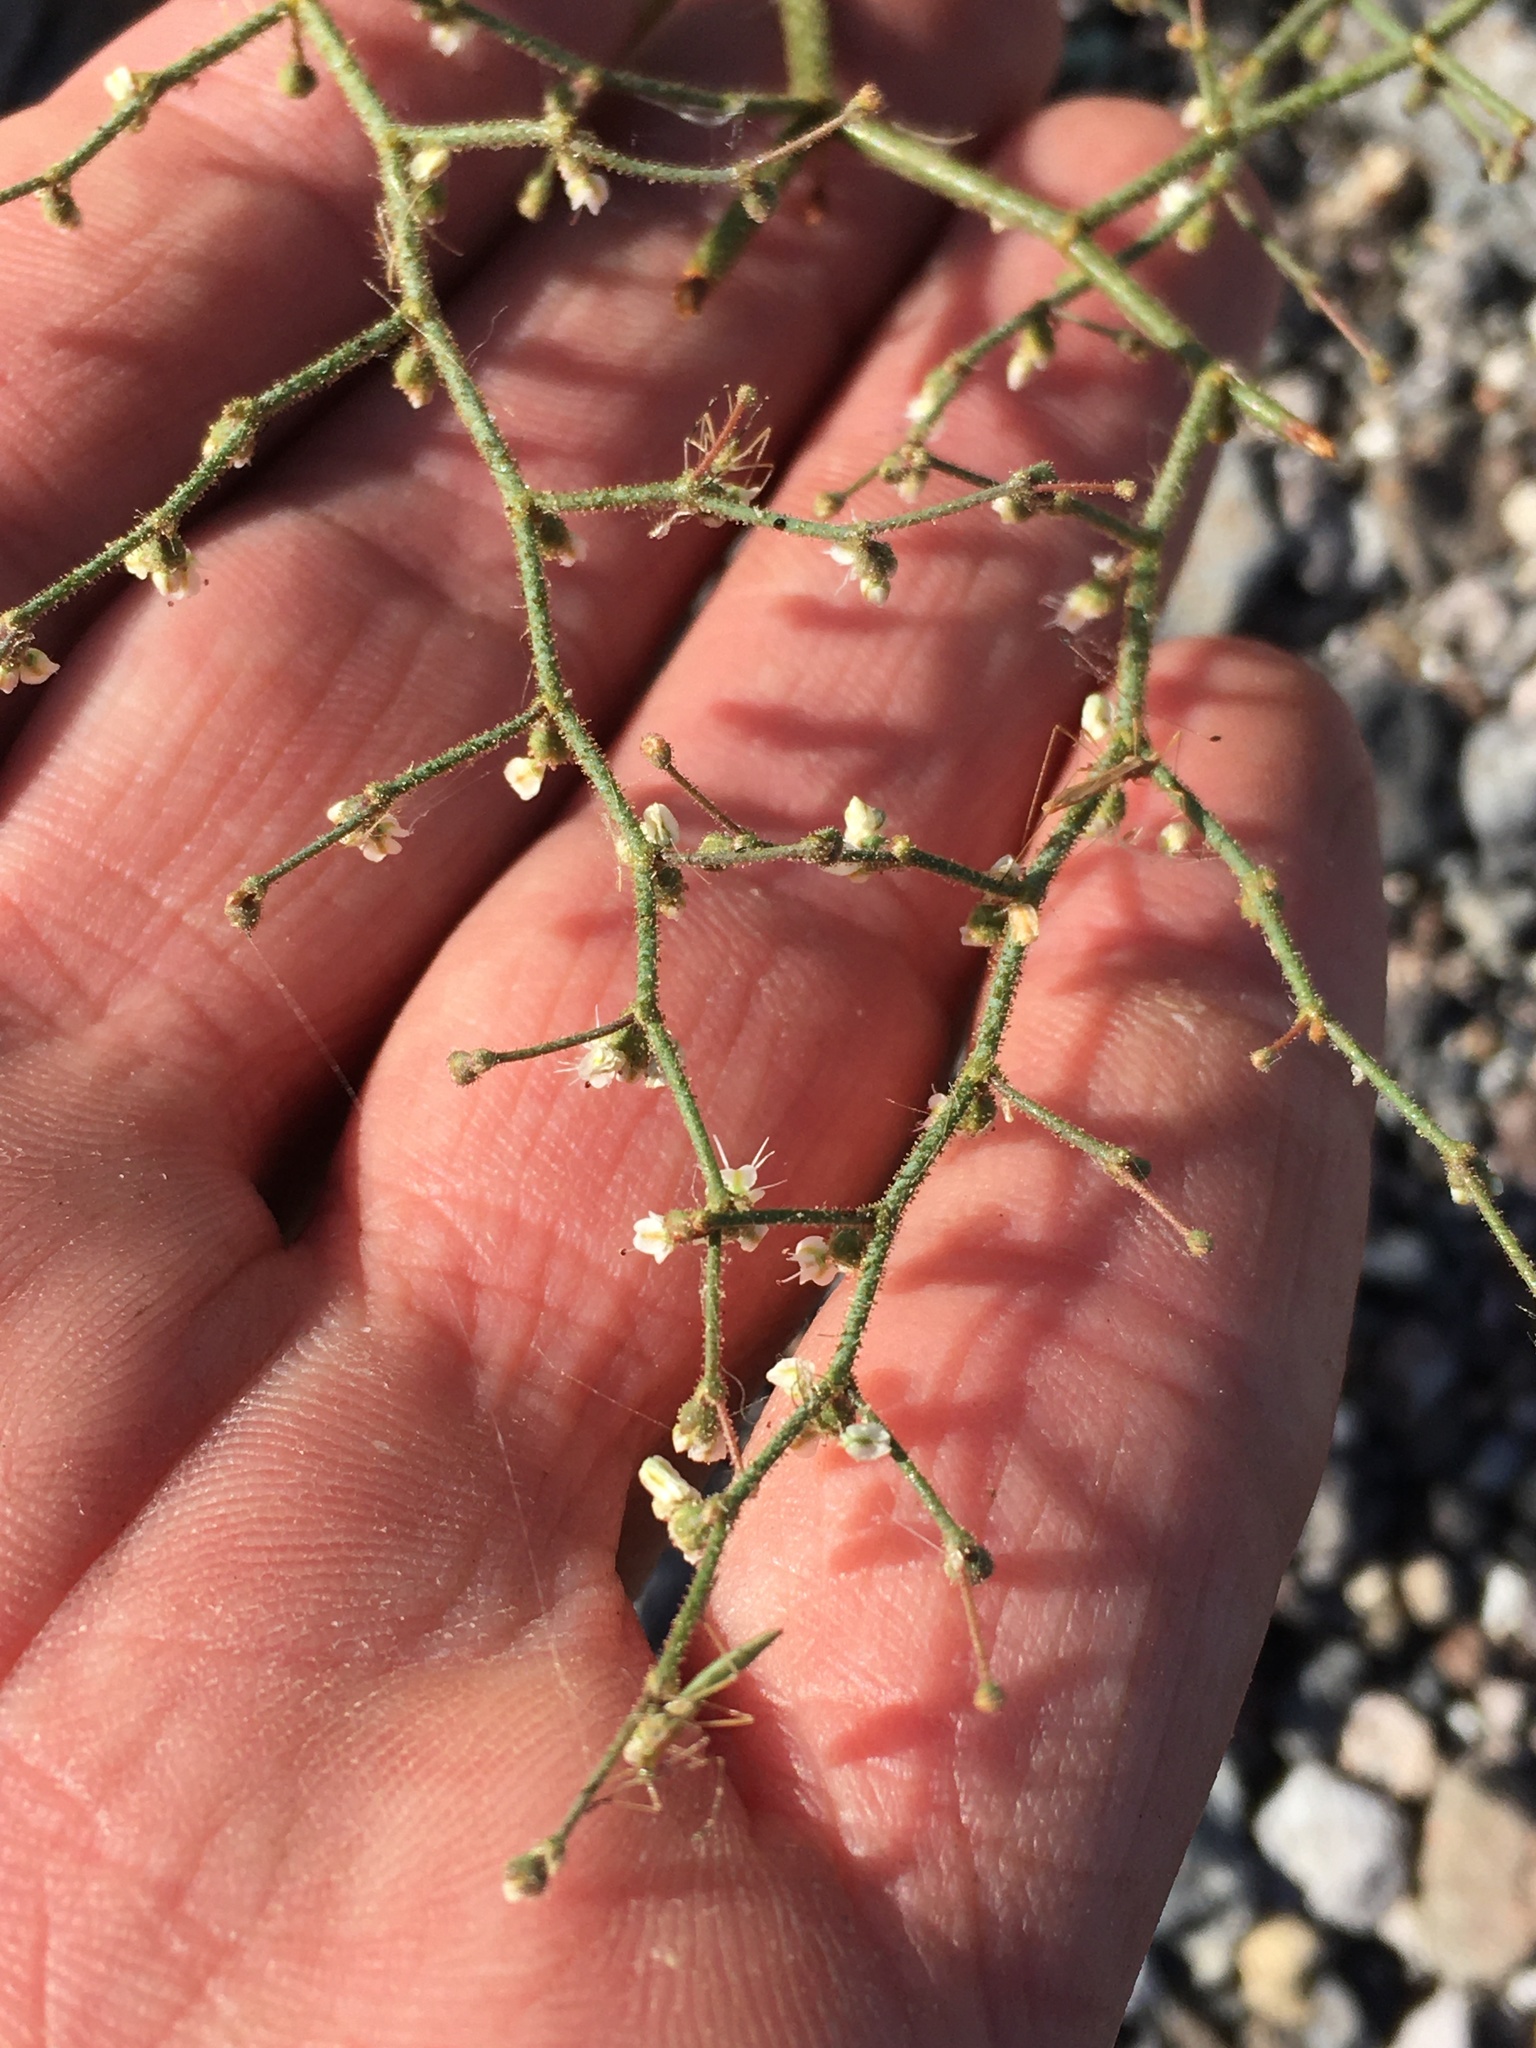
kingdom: Plantae
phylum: Tracheophyta
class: Magnoliopsida
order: Caryophyllales
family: Polygonaceae
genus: Eriogonum
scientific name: Eriogonum brachypodum
